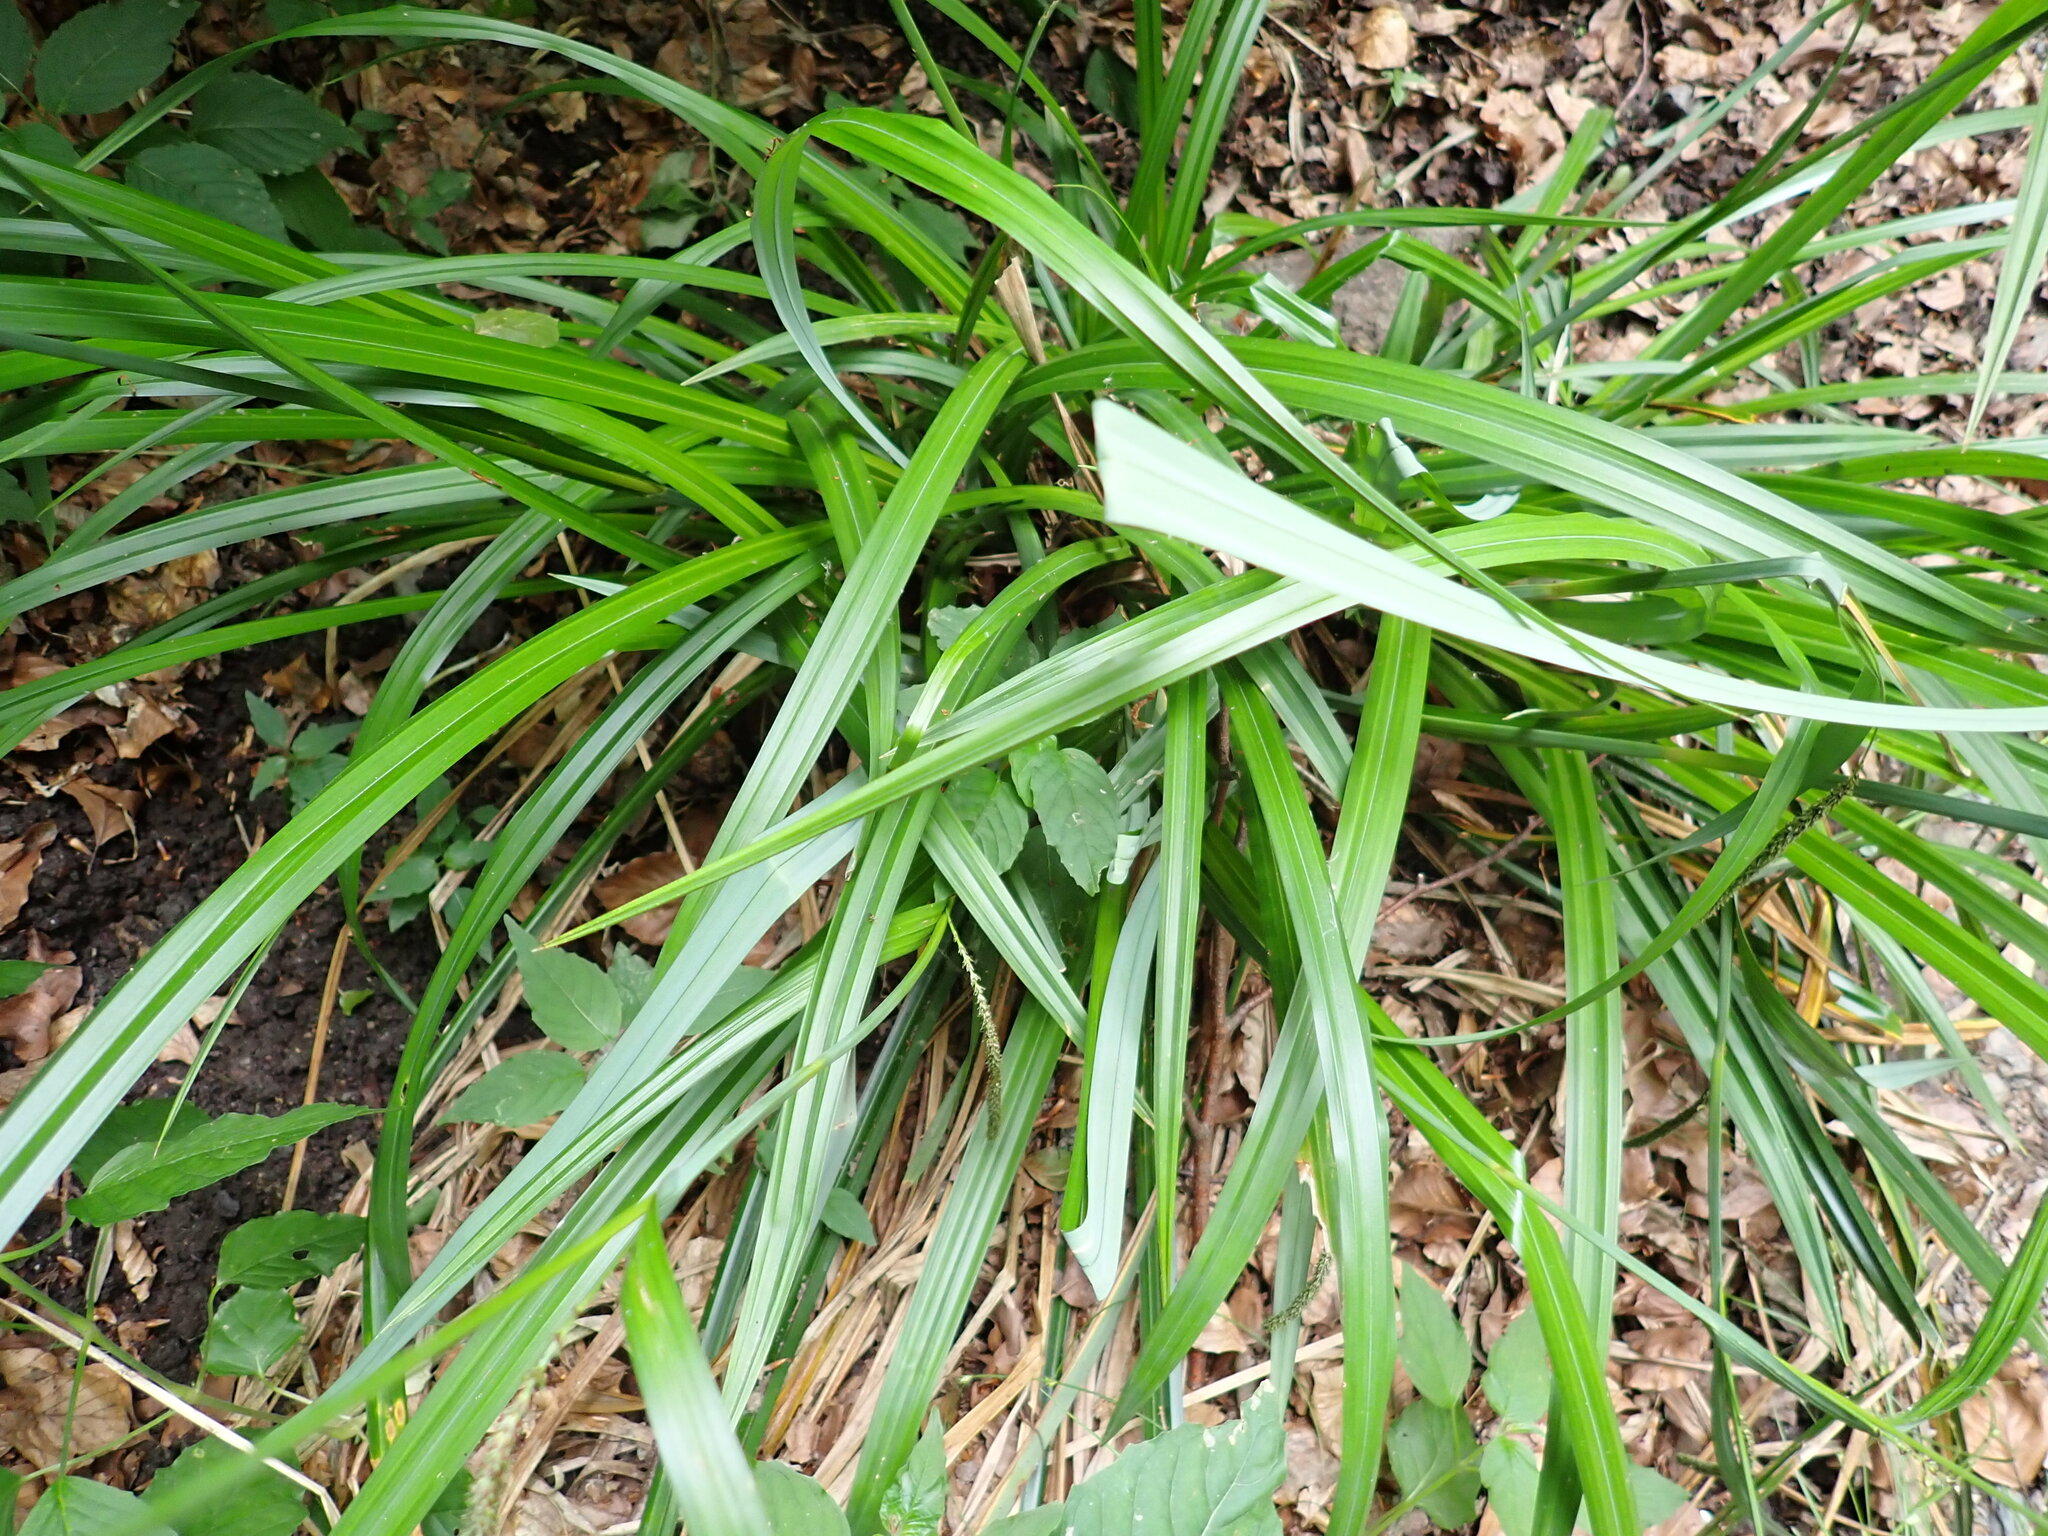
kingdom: Plantae
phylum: Tracheophyta
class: Liliopsida
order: Poales
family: Cyperaceae
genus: Carex
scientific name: Carex pendula
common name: Pendulous sedge
